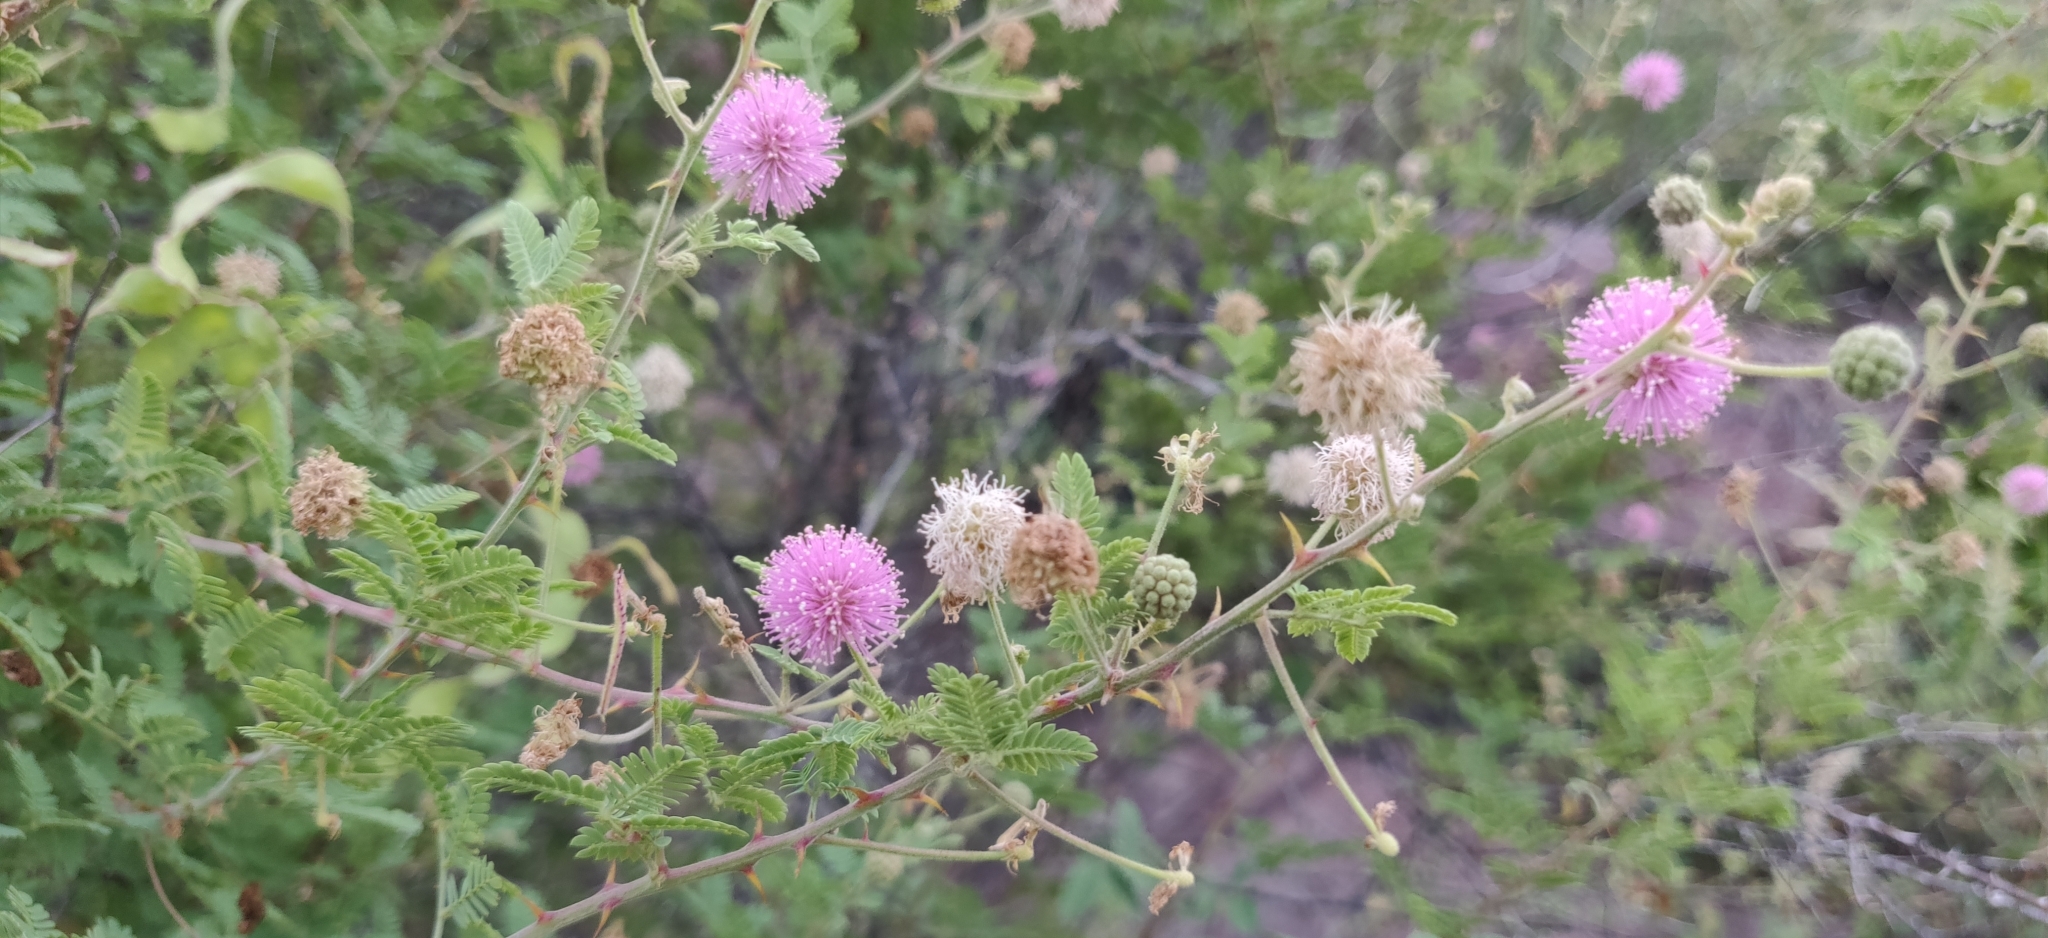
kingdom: Plantae
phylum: Tracheophyta
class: Magnoliopsida
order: Fabales
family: Fabaceae
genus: Mimosa
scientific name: Mimosa hamata
